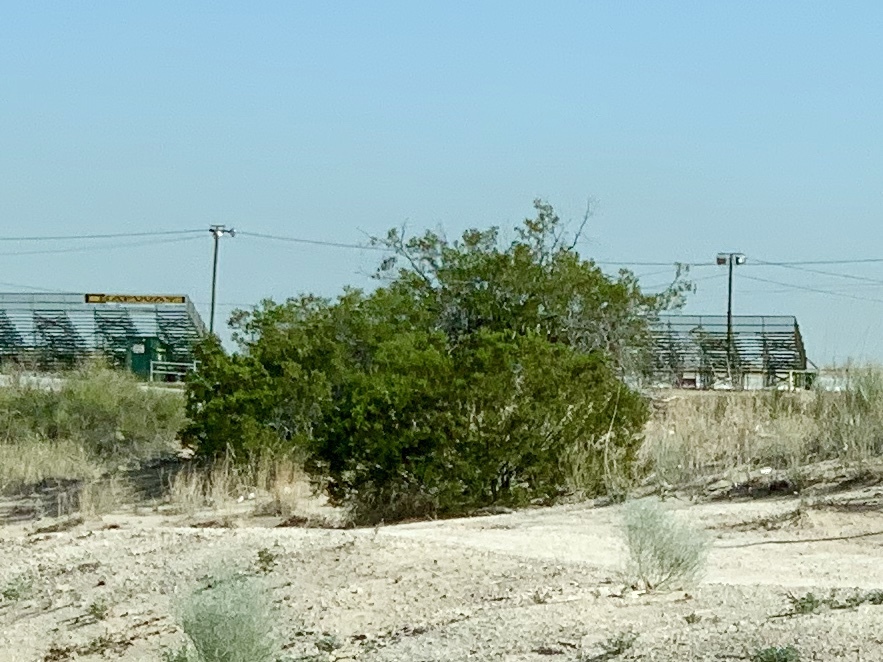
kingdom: Plantae
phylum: Tracheophyta
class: Magnoliopsida
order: Zygophyllales
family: Zygophyllaceae
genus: Larrea
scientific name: Larrea tridentata
